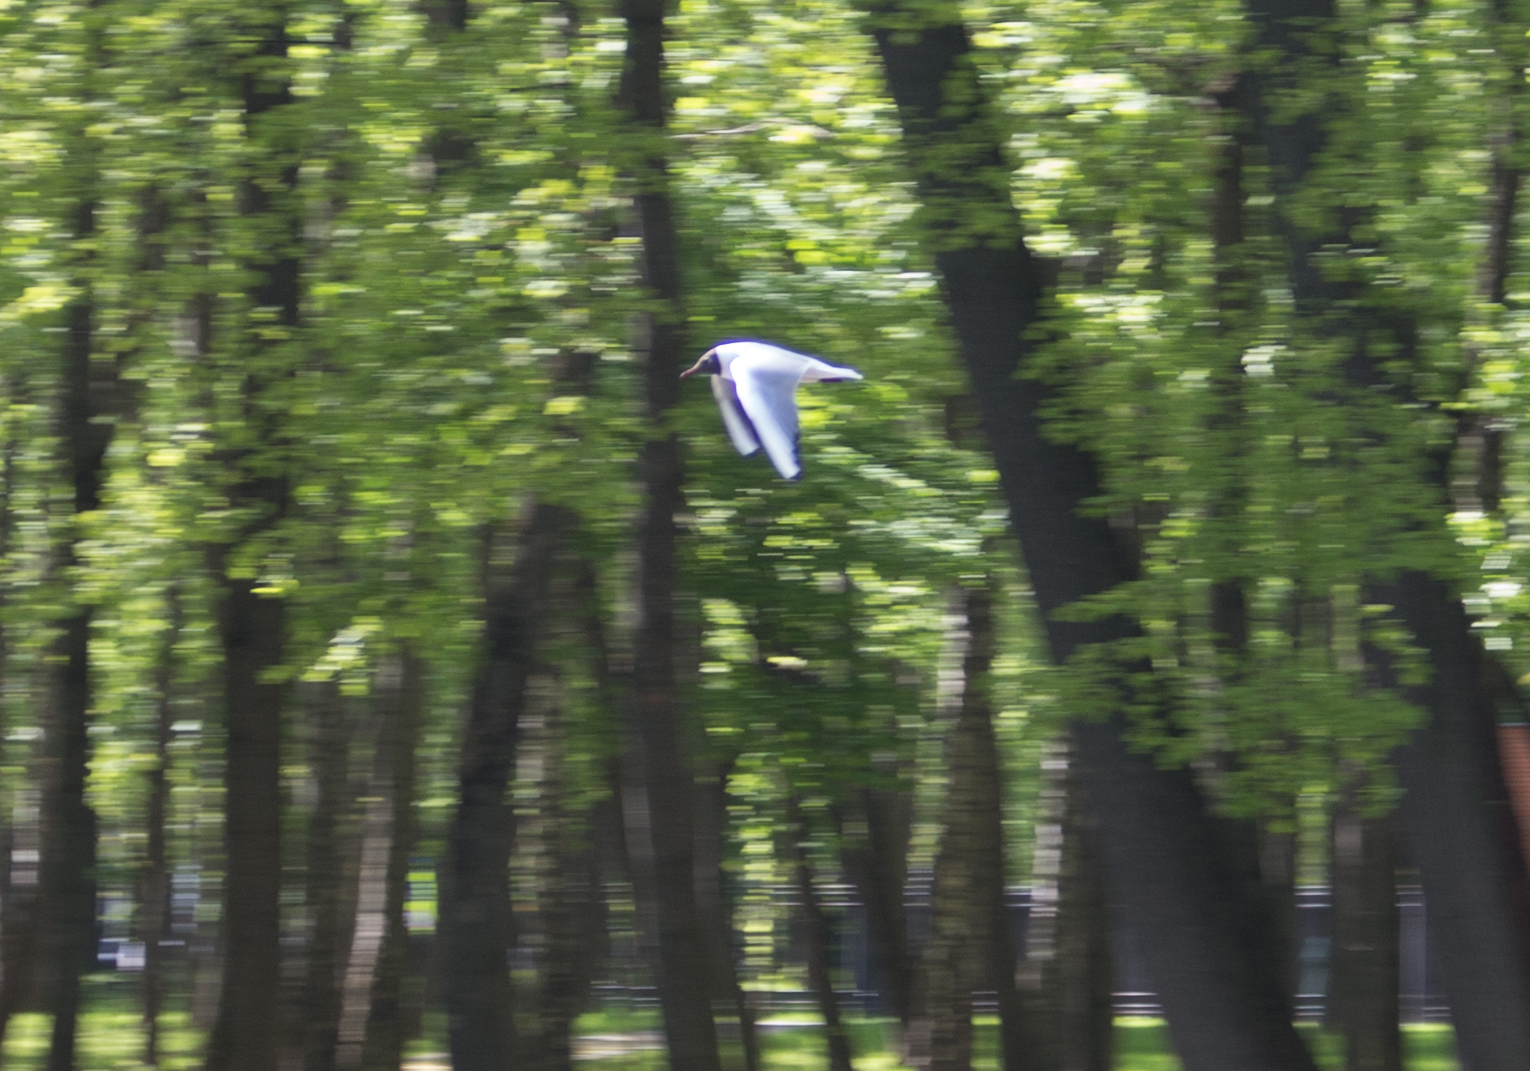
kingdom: Animalia
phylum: Chordata
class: Aves
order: Charadriiformes
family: Laridae
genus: Chroicocephalus
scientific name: Chroicocephalus ridibundus
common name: Black-headed gull
